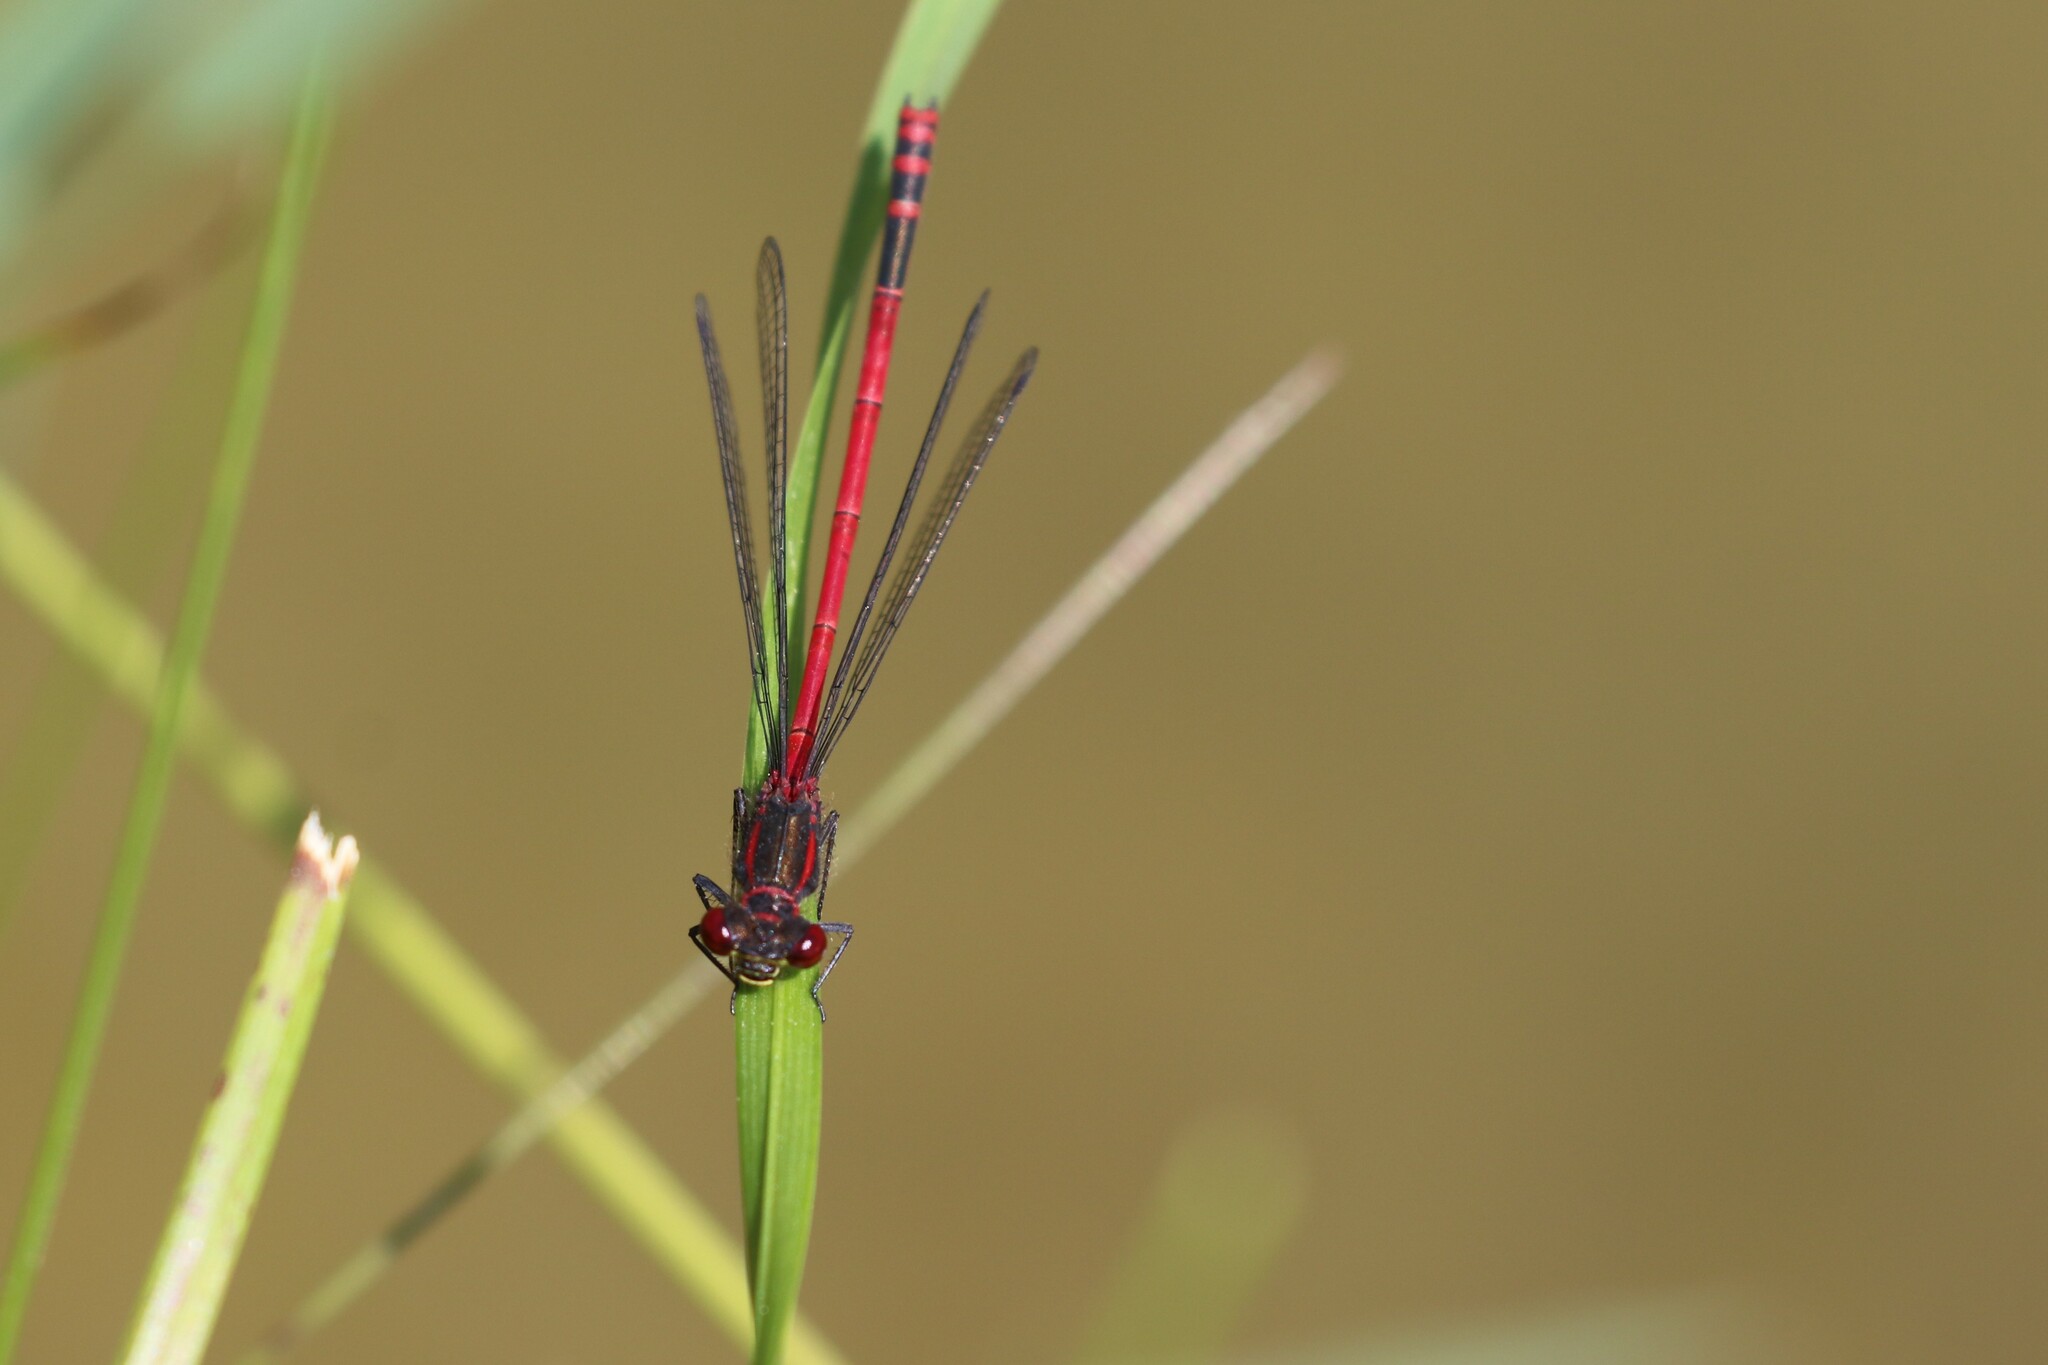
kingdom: Animalia
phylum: Arthropoda
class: Insecta
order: Odonata
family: Coenagrionidae
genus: Pyrrhosoma
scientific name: Pyrrhosoma nymphula
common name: Large red damsel
